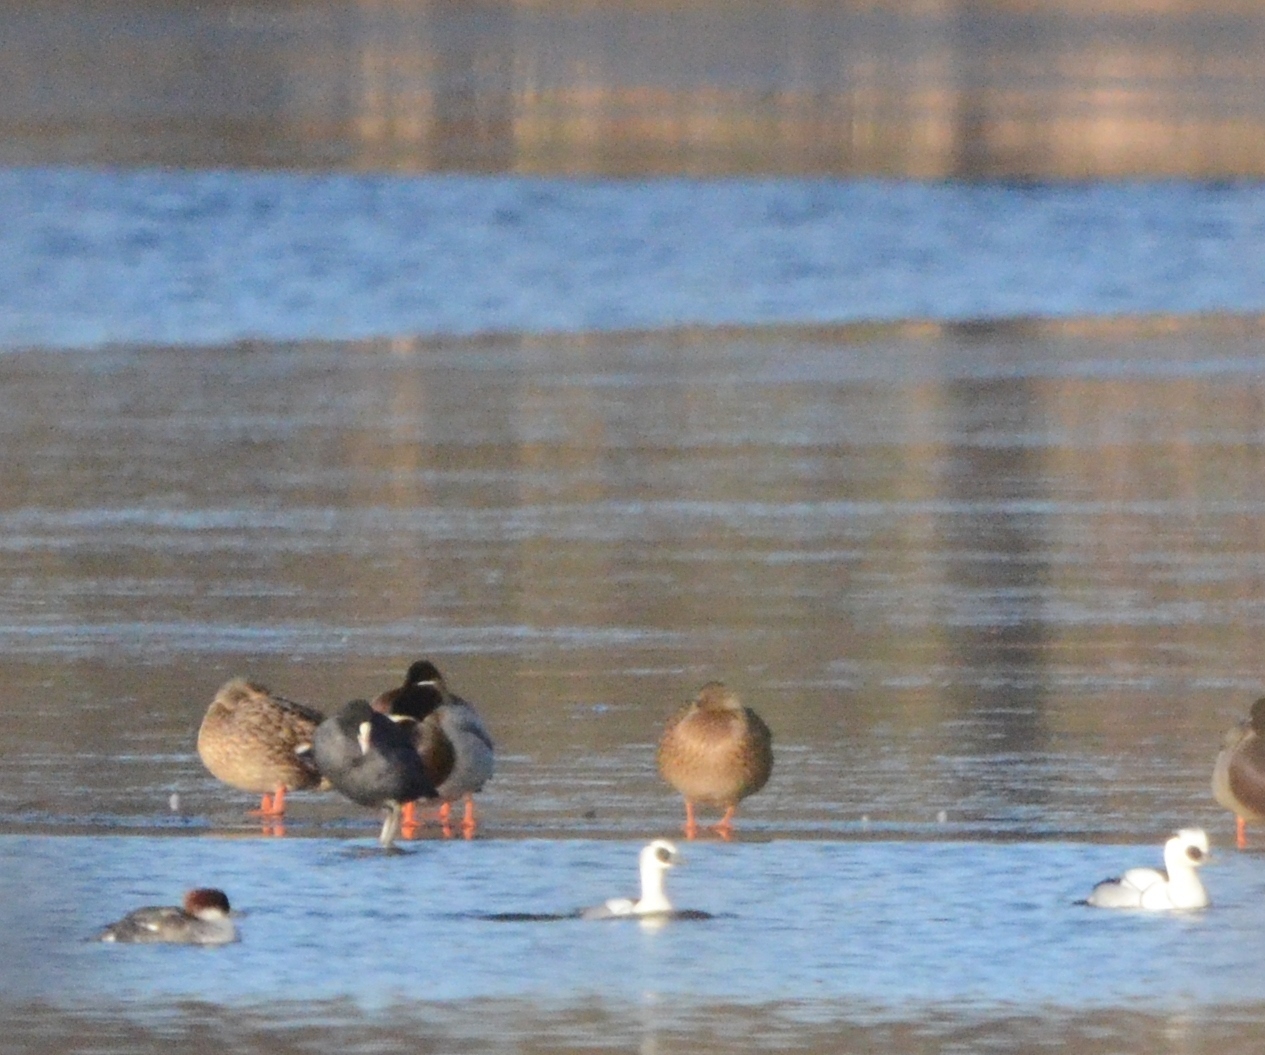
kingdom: Animalia
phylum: Chordata
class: Aves
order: Anseriformes
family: Anatidae
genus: Mergellus
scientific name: Mergellus albellus
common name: Smew
